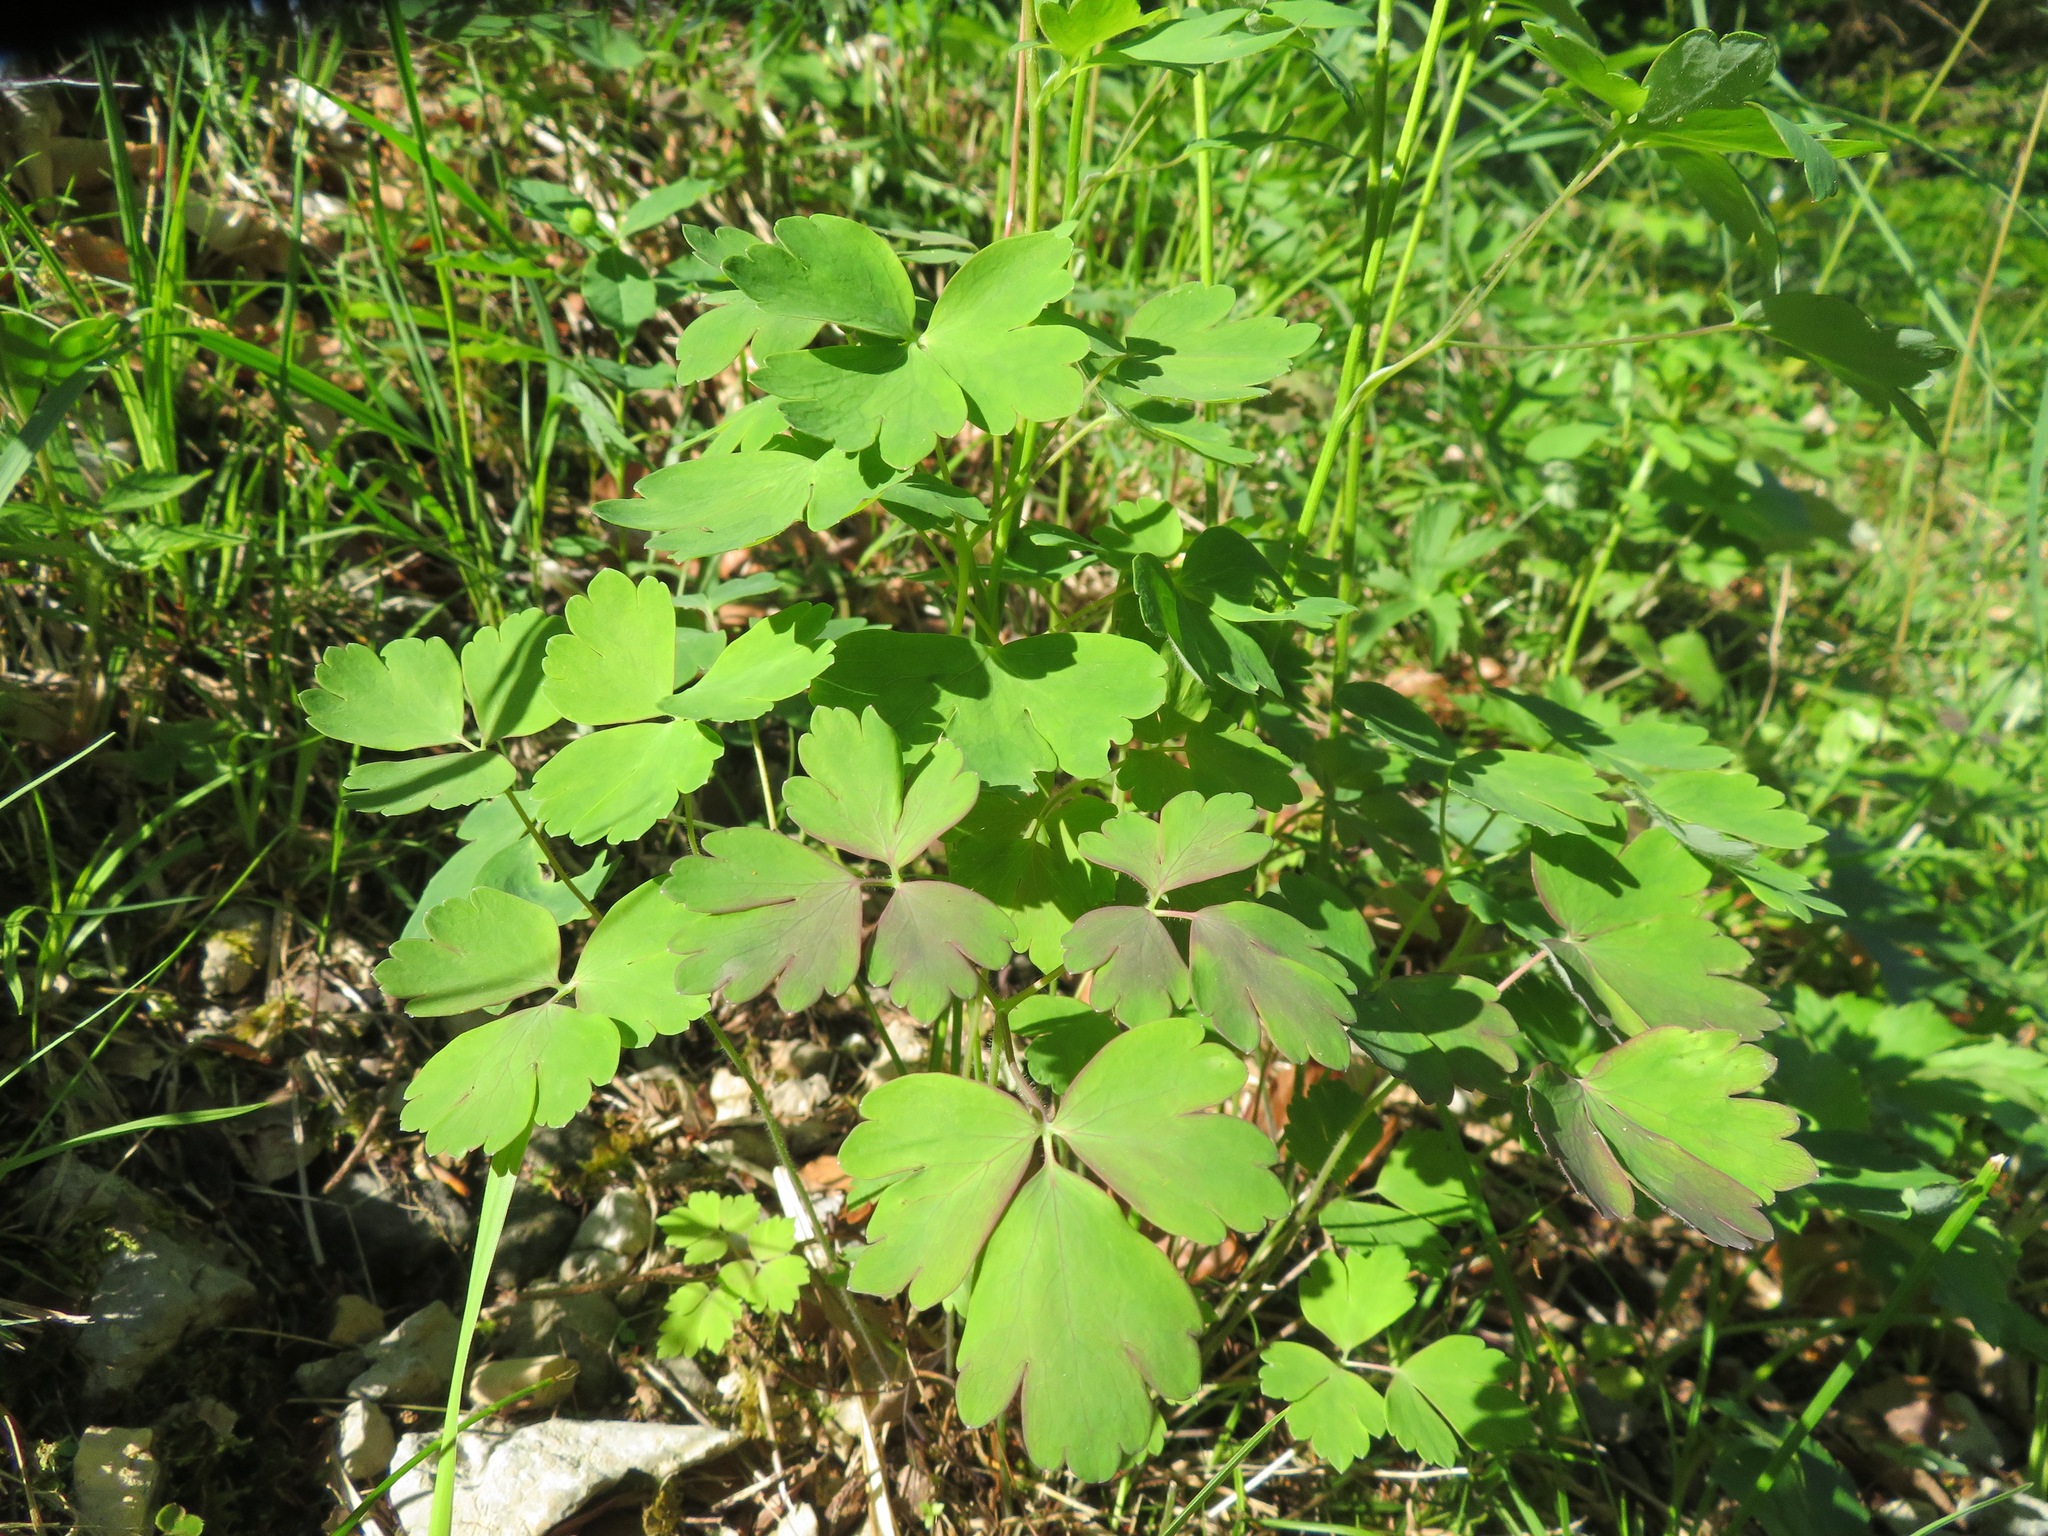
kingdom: Plantae
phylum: Tracheophyta
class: Magnoliopsida
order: Ranunculales
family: Ranunculaceae
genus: Aquilegia
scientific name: Aquilegia atrata
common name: Dark columbine
